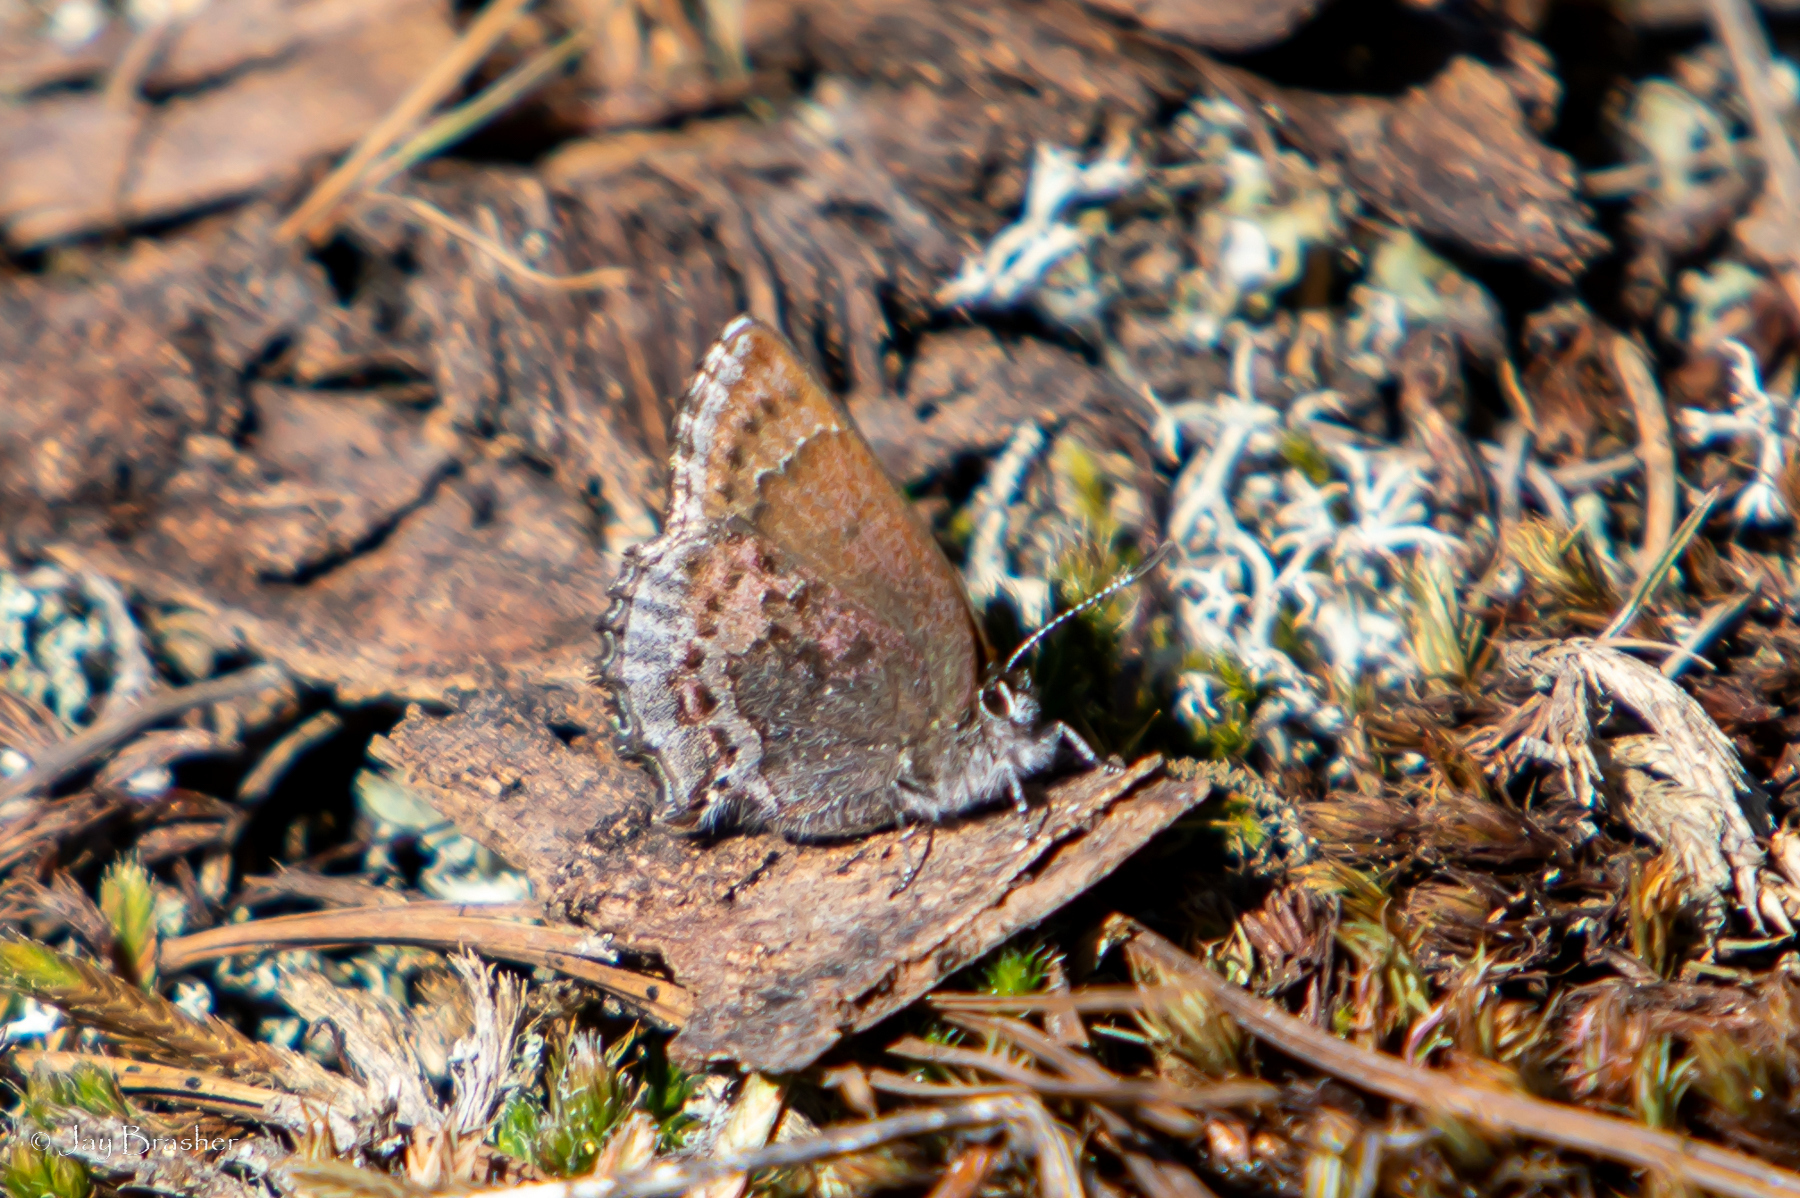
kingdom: Animalia
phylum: Arthropoda
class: Insecta
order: Lepidoptera
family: Lycaenidae
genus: Callophrys
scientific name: Callophrys polios
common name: Hoary elfin
